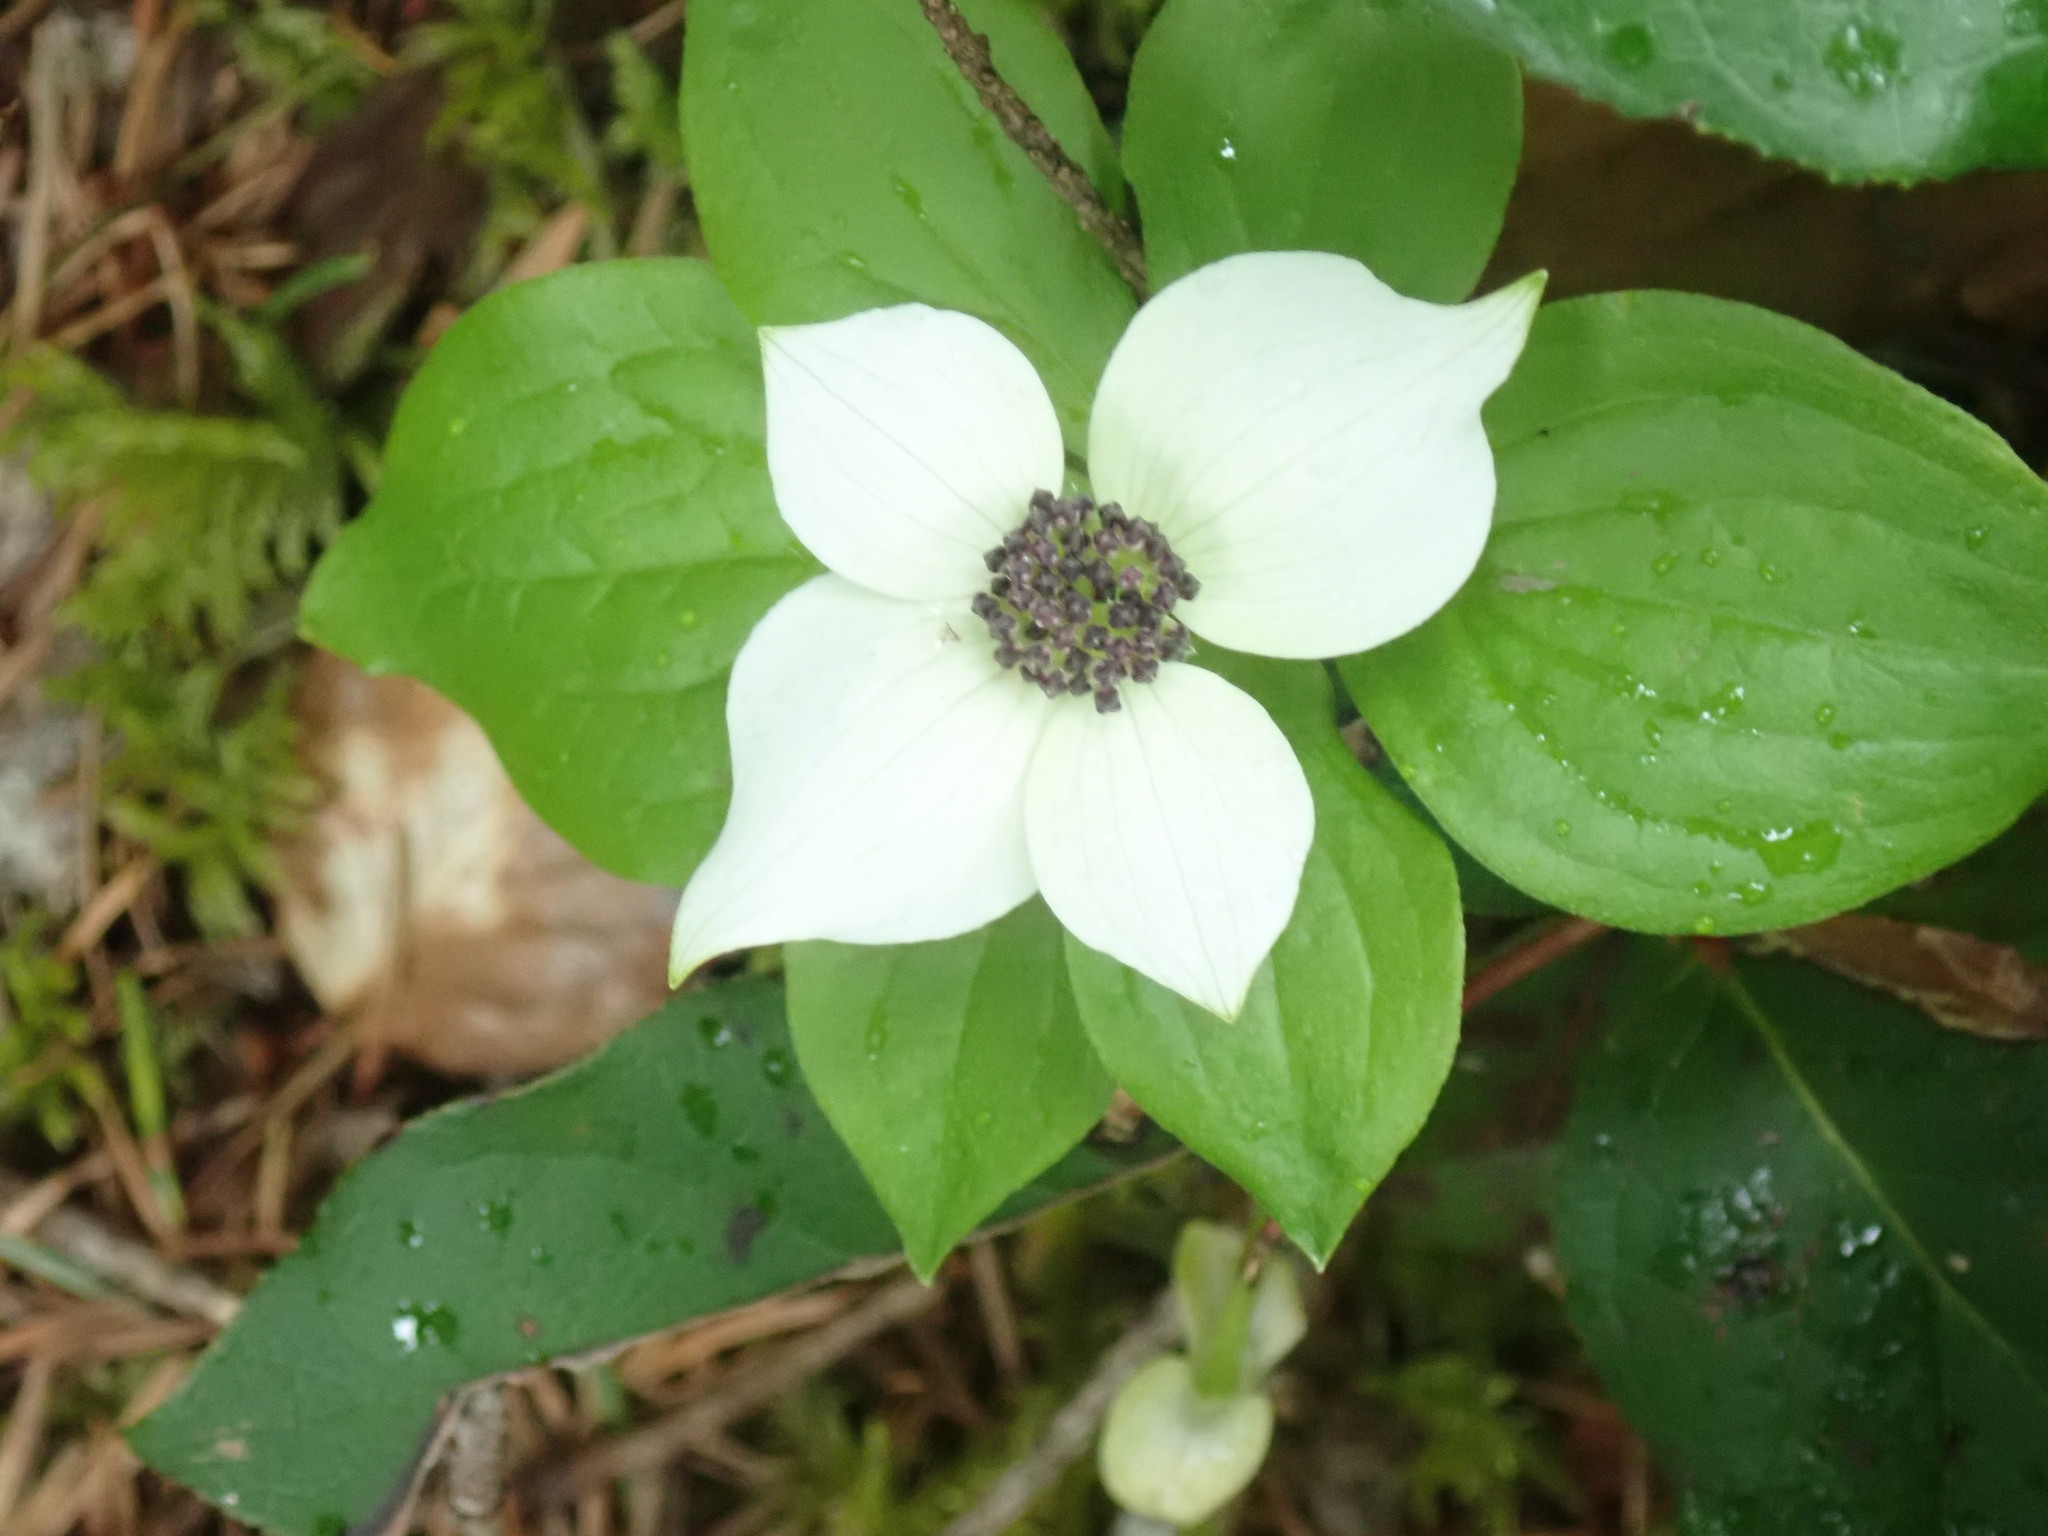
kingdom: Plantae
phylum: Tracheophyta
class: Magnoliopsida
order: Cornales
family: Cornaceae
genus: Cornus
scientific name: Cornus unalaschkensis
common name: Alaska bunchberry
